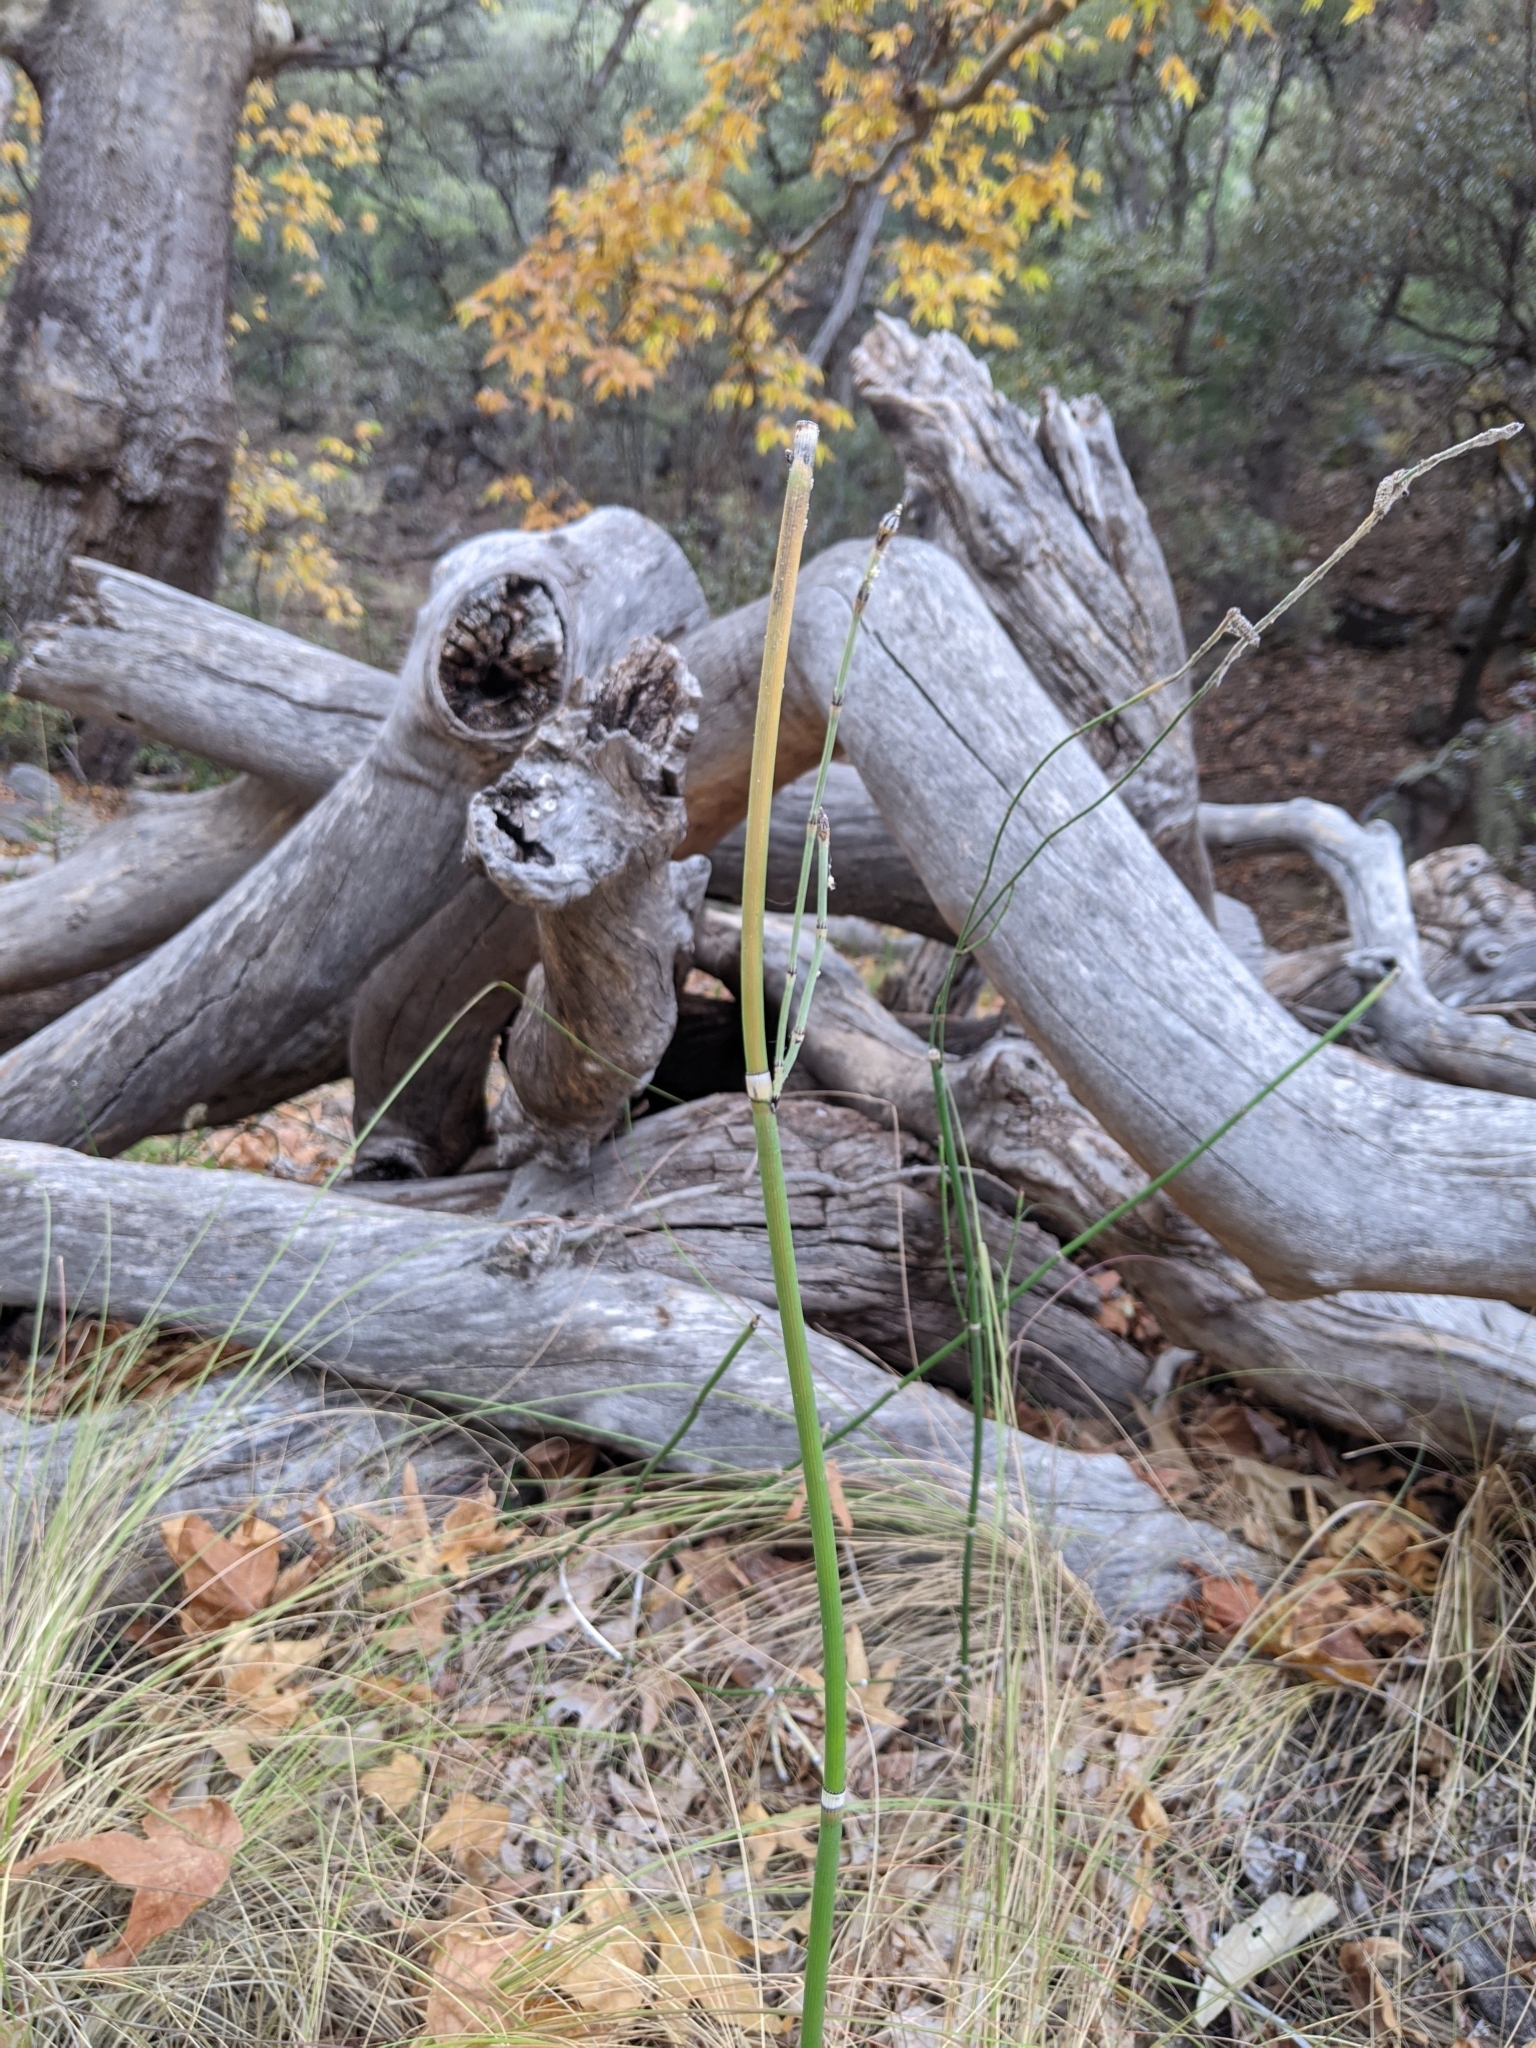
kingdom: Plantae
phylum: Tracheophyta
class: Polypodiopsida
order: Equisetales
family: Equisetaceae
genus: Equisetum
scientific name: Equisetum ferrissii
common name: Ferriss' horsetail
